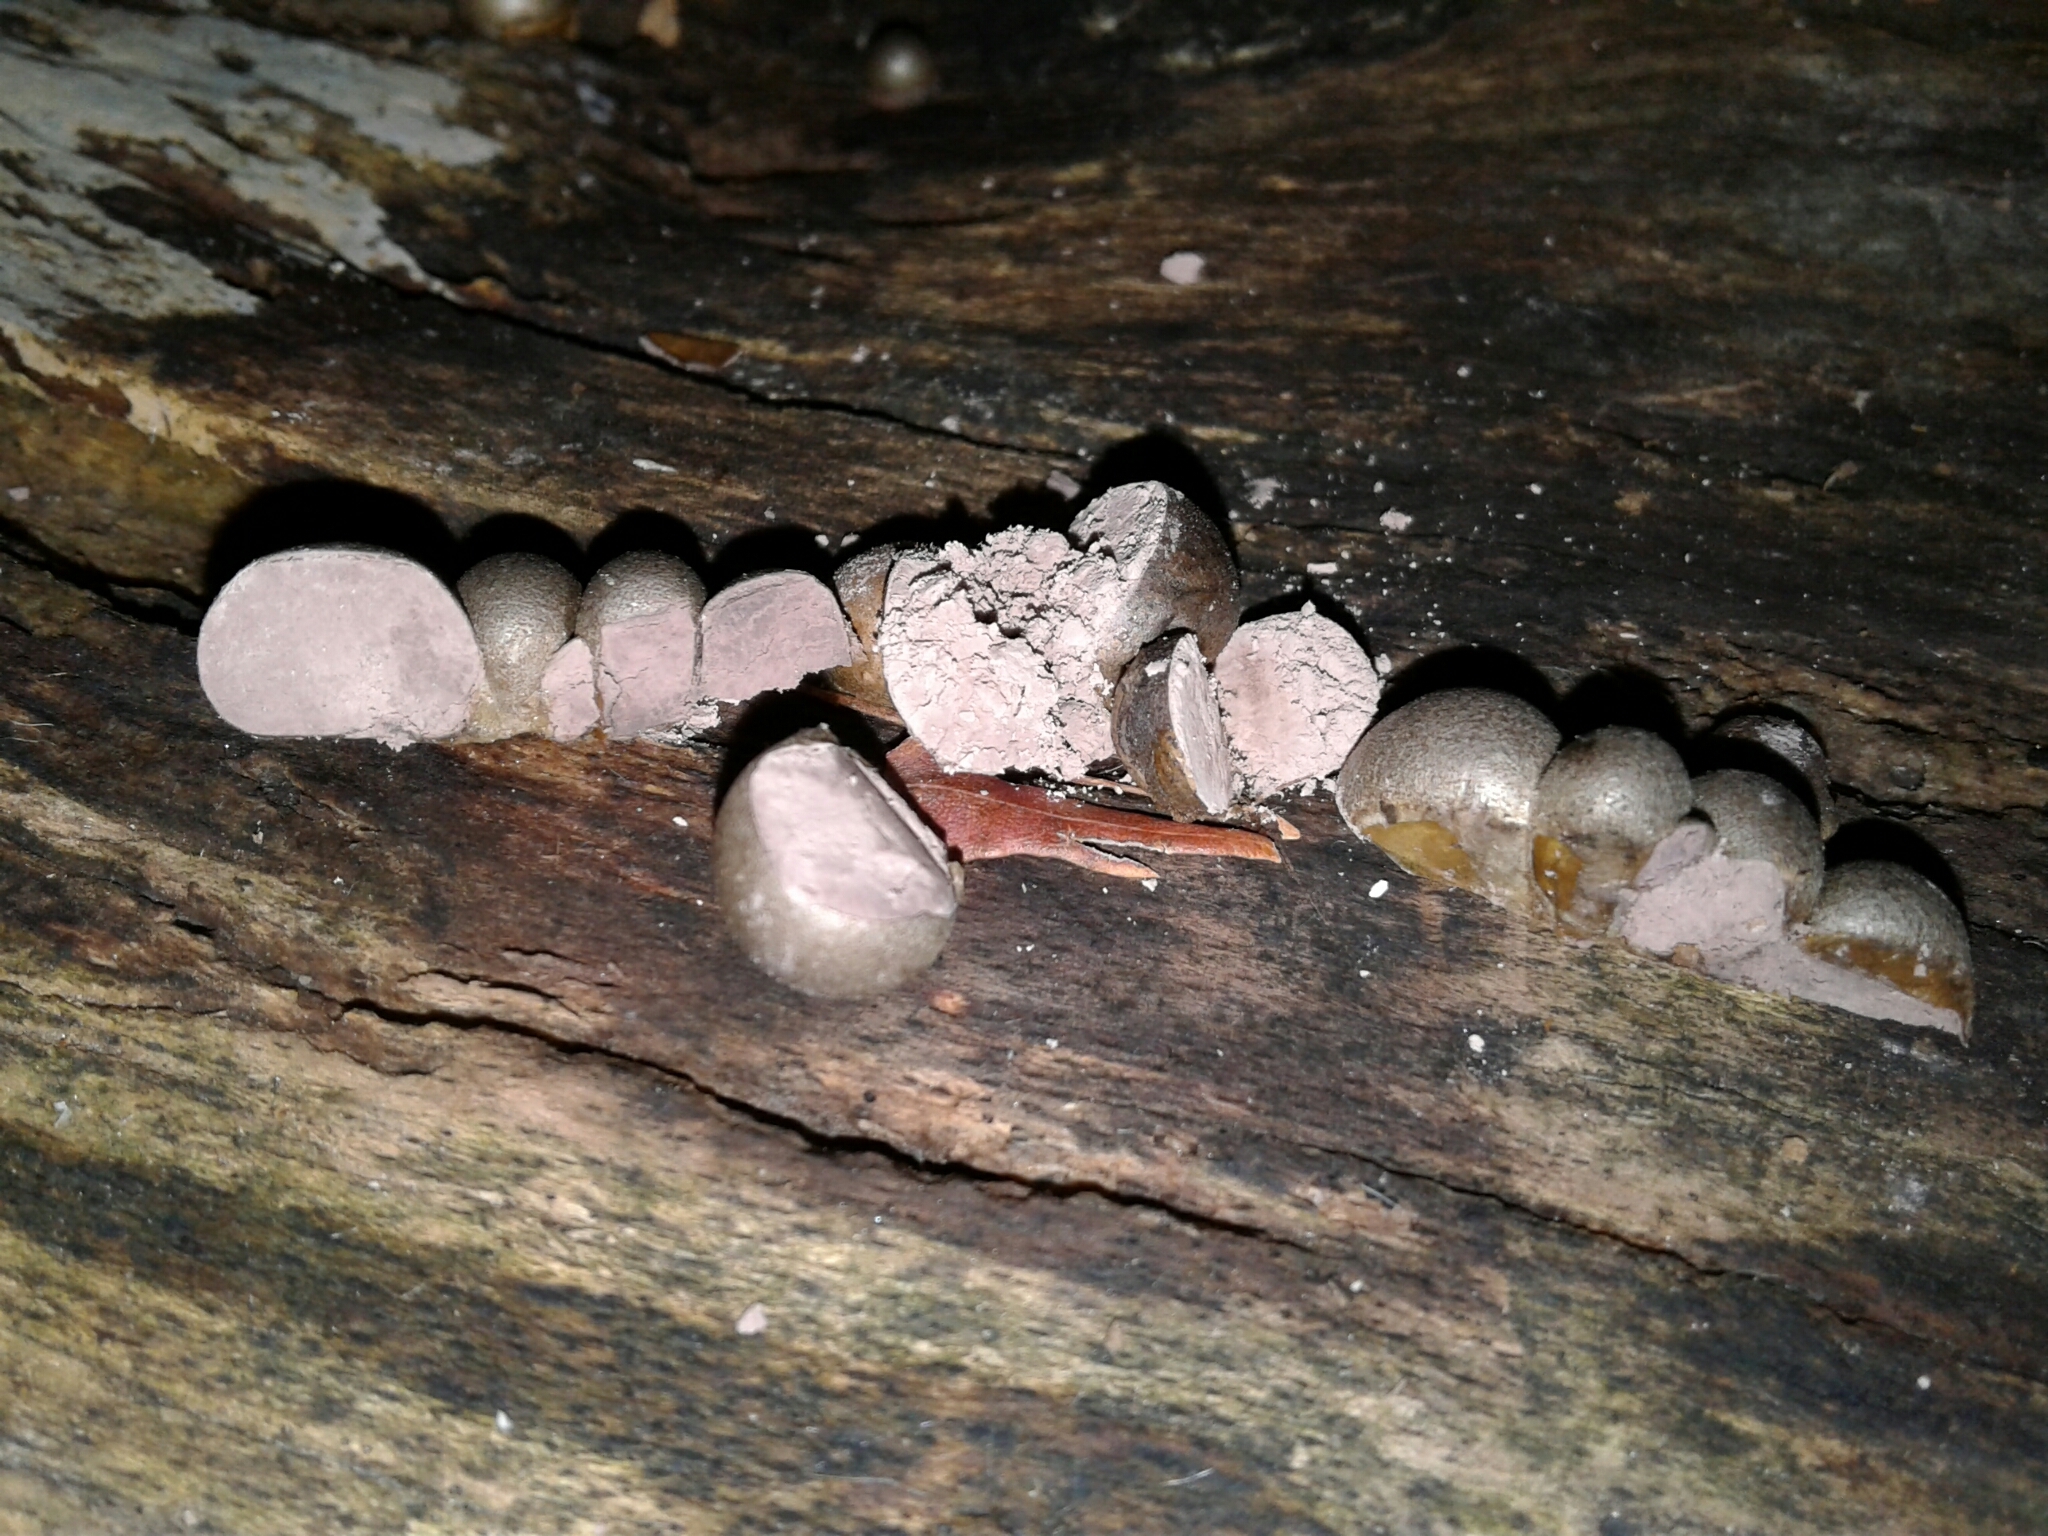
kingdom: Protozoa
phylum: Mycetozoa
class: Myxomycetes
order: Cribrariales
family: Tubiferaceae
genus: Lycogala
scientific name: Lycogala epidendrum
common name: Wolf's milk
